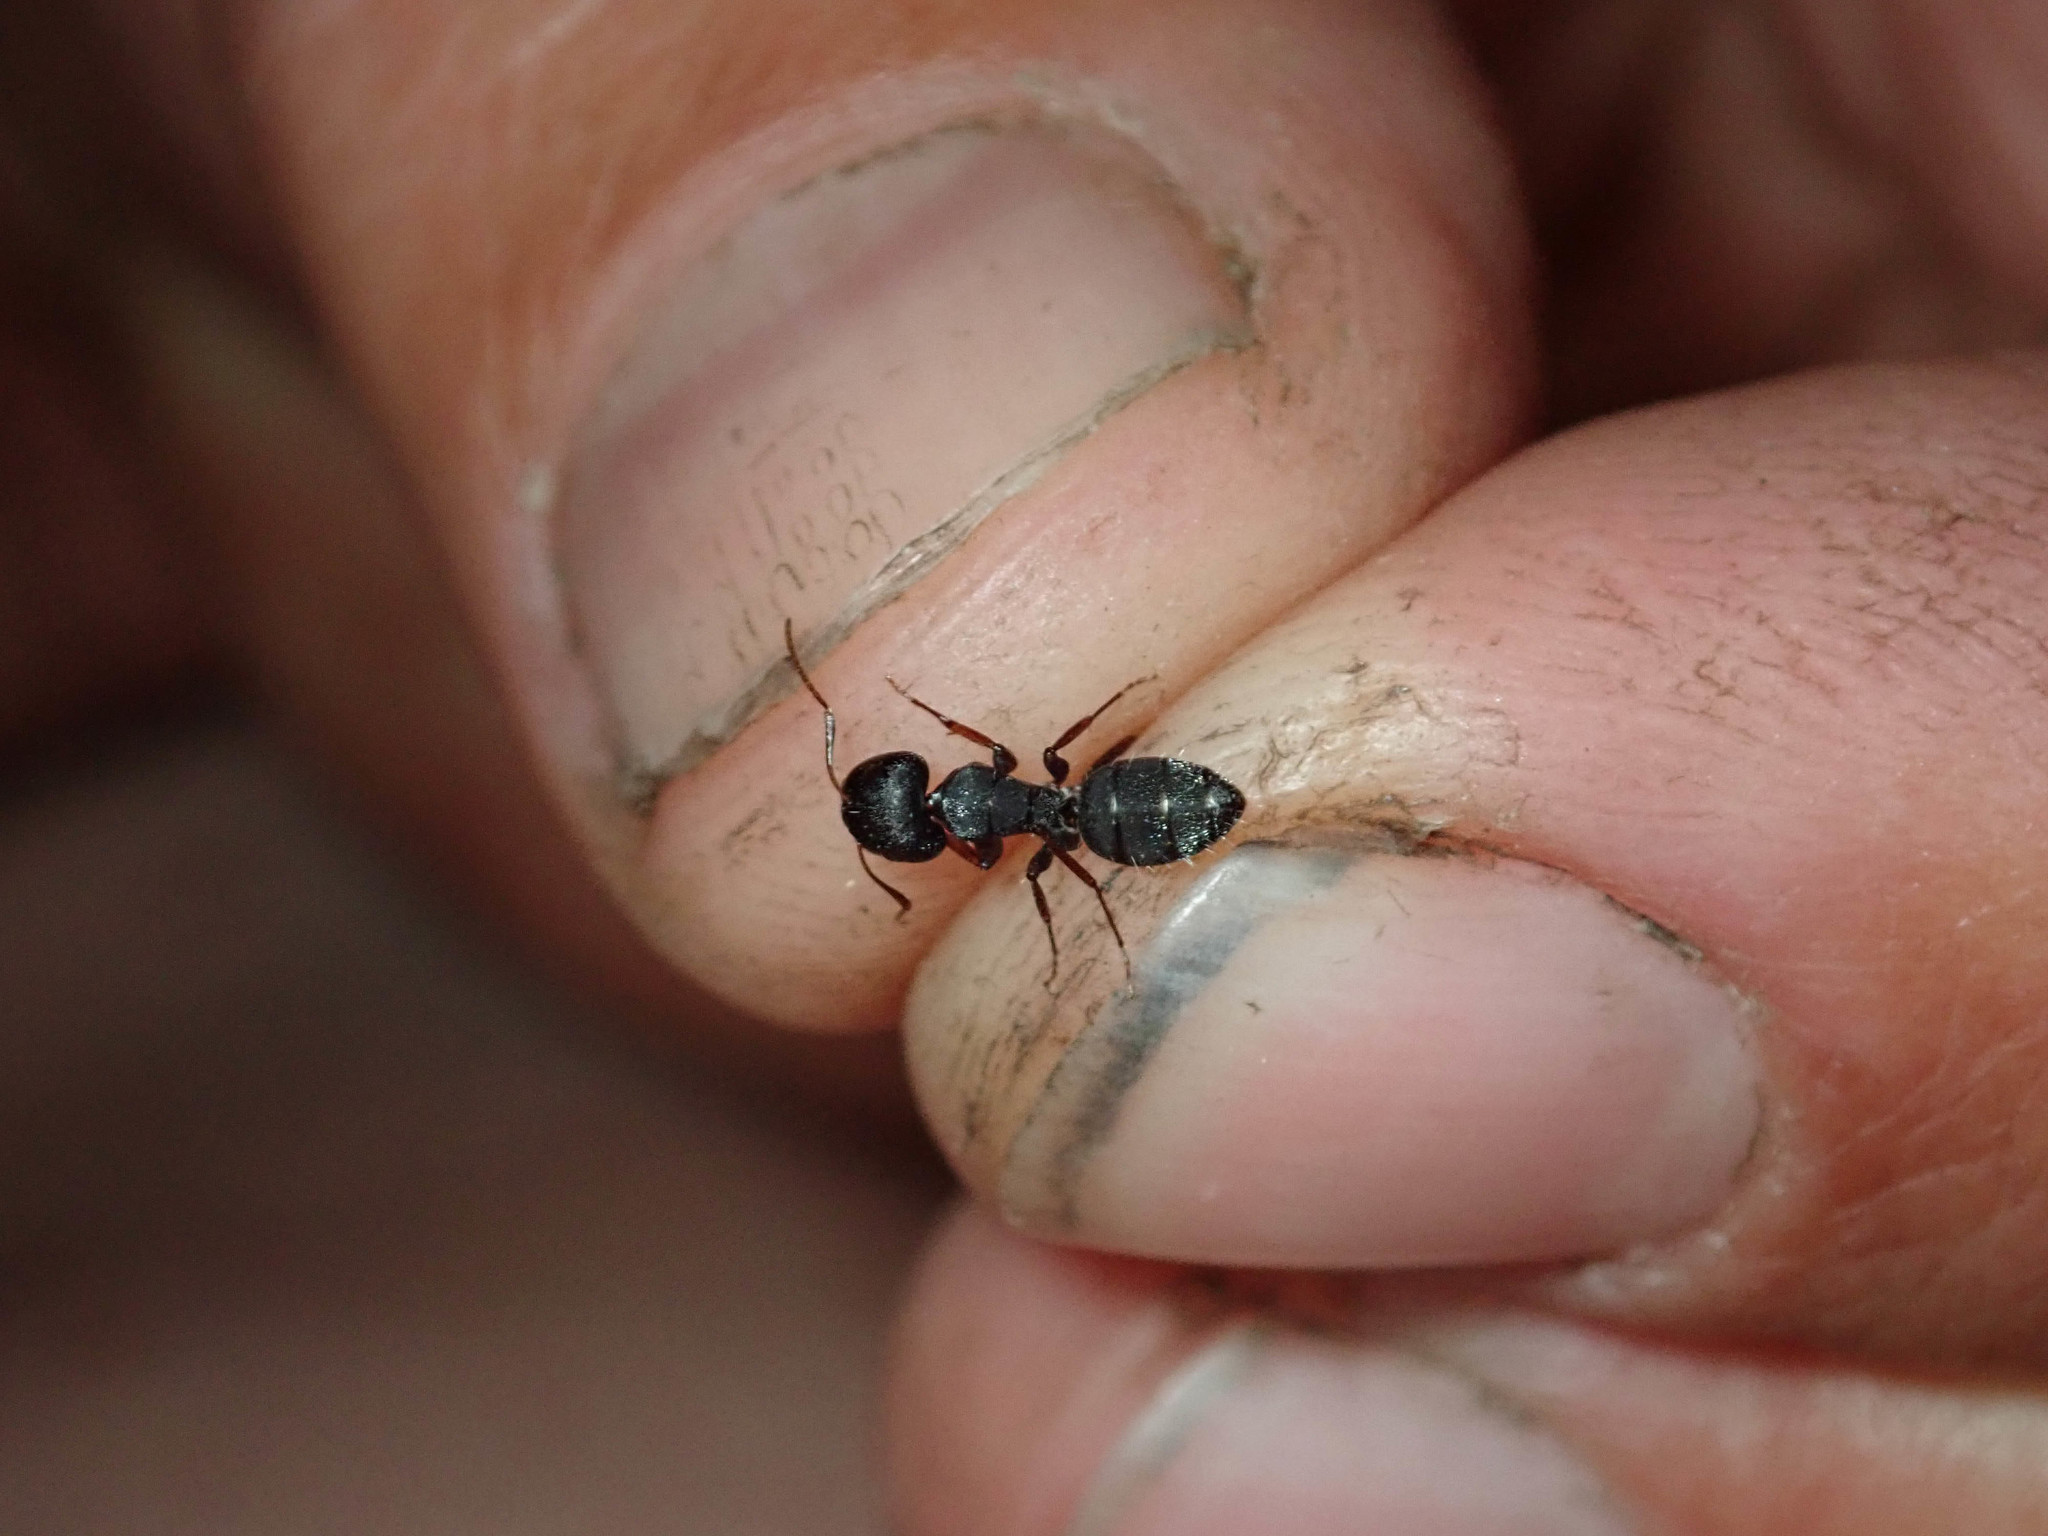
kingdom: Animalia
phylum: Arthropoda
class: Insecta
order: Hymenoptera
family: Formicidae
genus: Camponotus
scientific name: Camponotus braunsi
